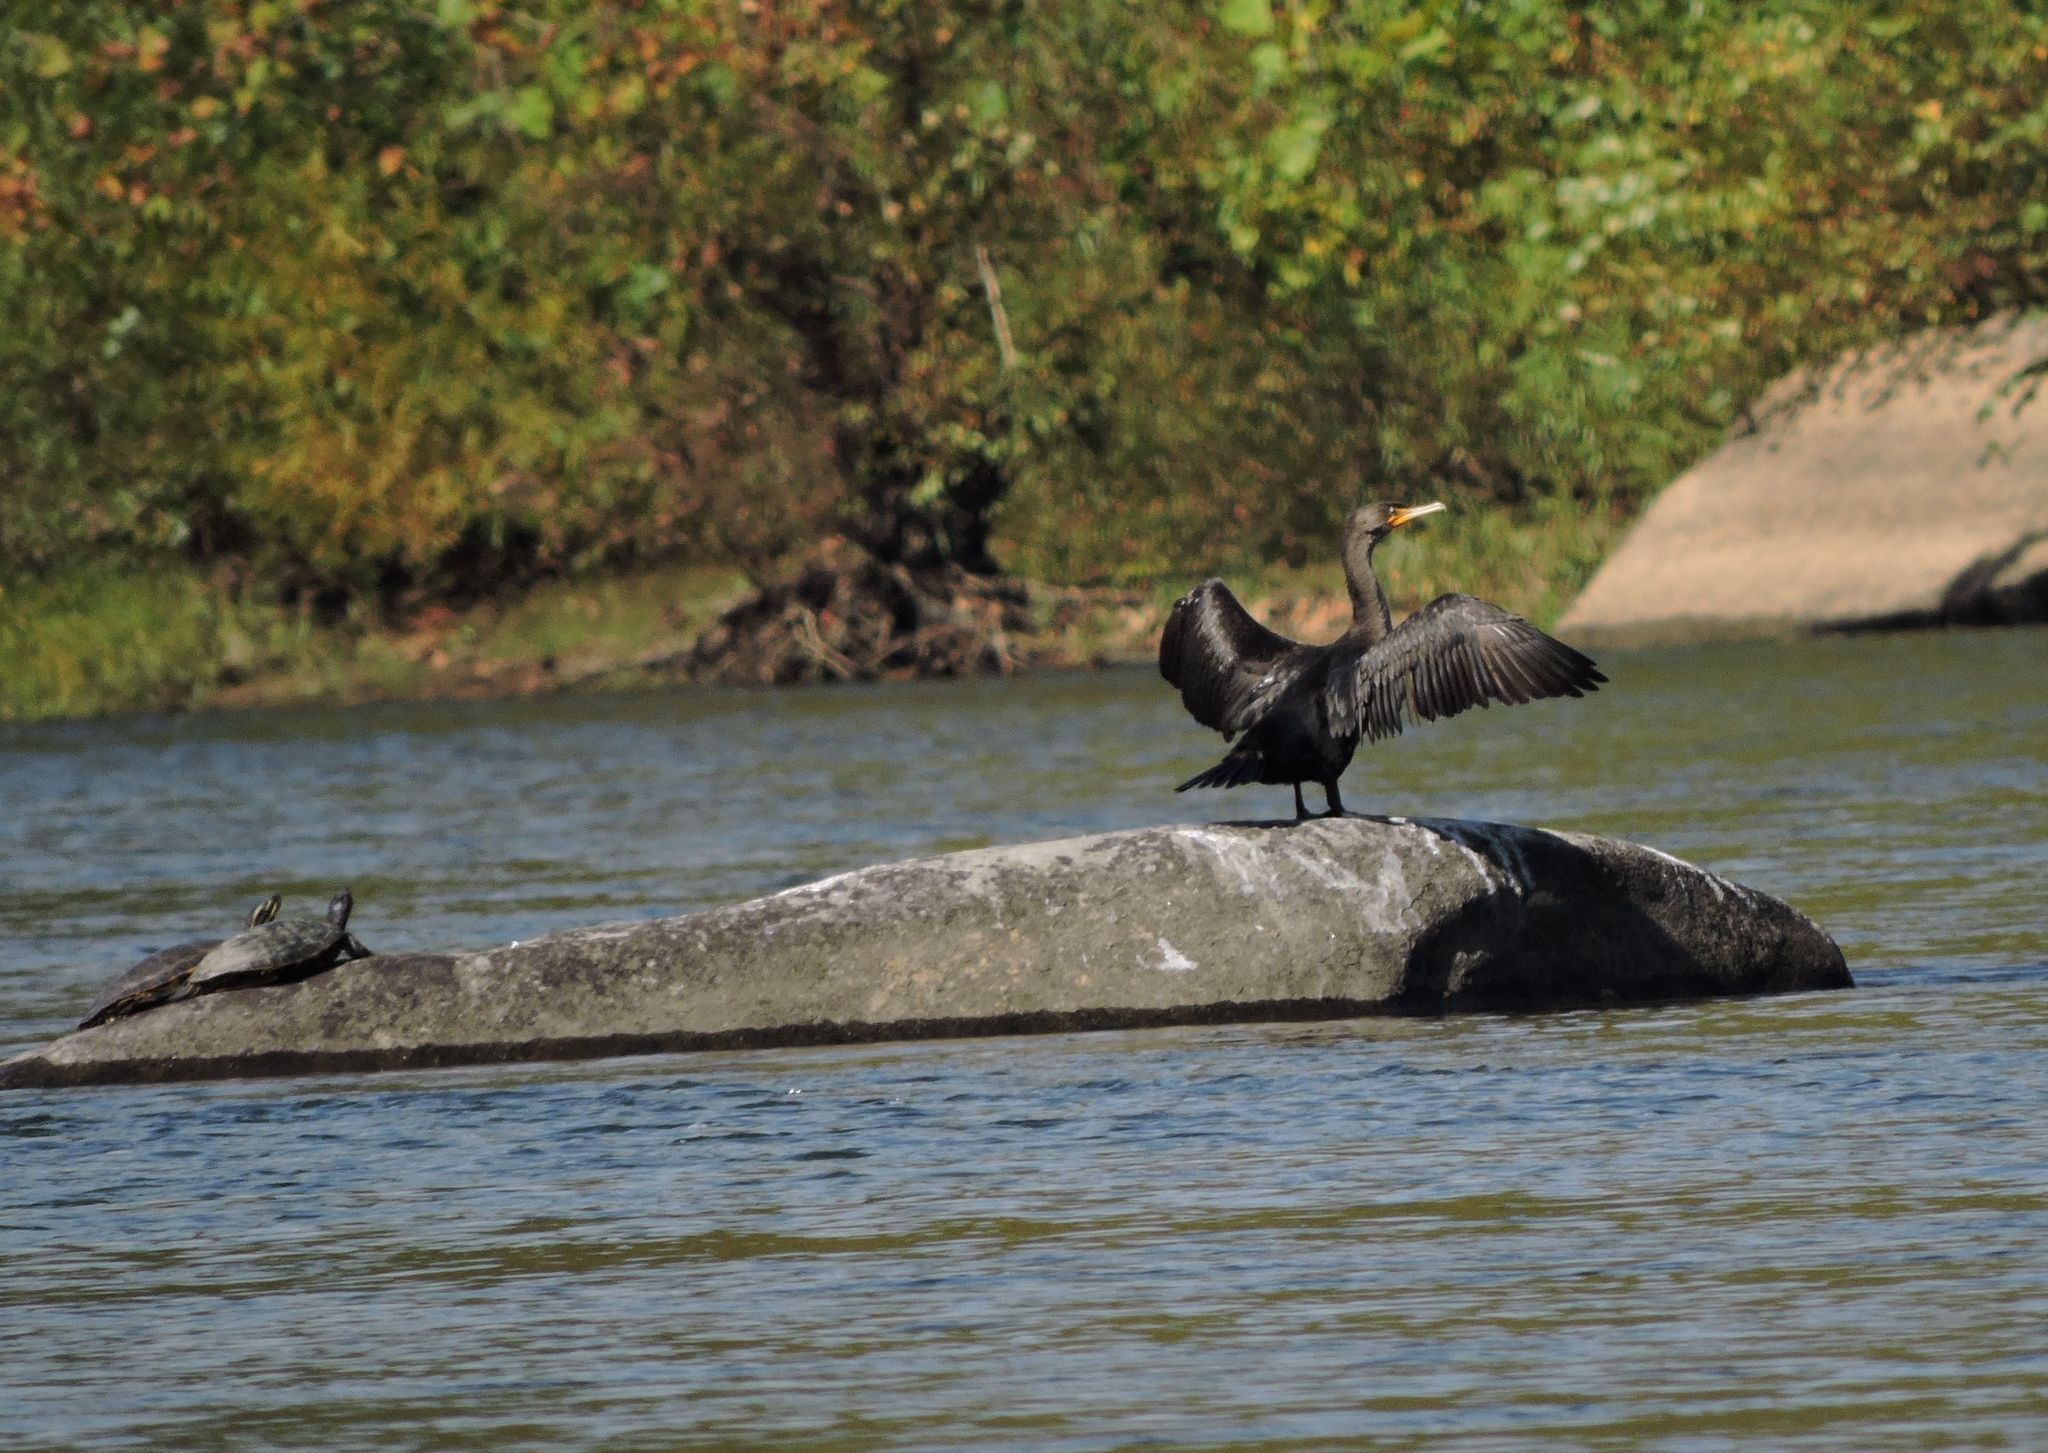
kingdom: Animalia
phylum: Chordata
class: Aves
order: Suliformes
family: Phalacrocoracidae
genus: Phalacrocorax
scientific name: Phalacrocorax auritus
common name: Double-crested cormorant
